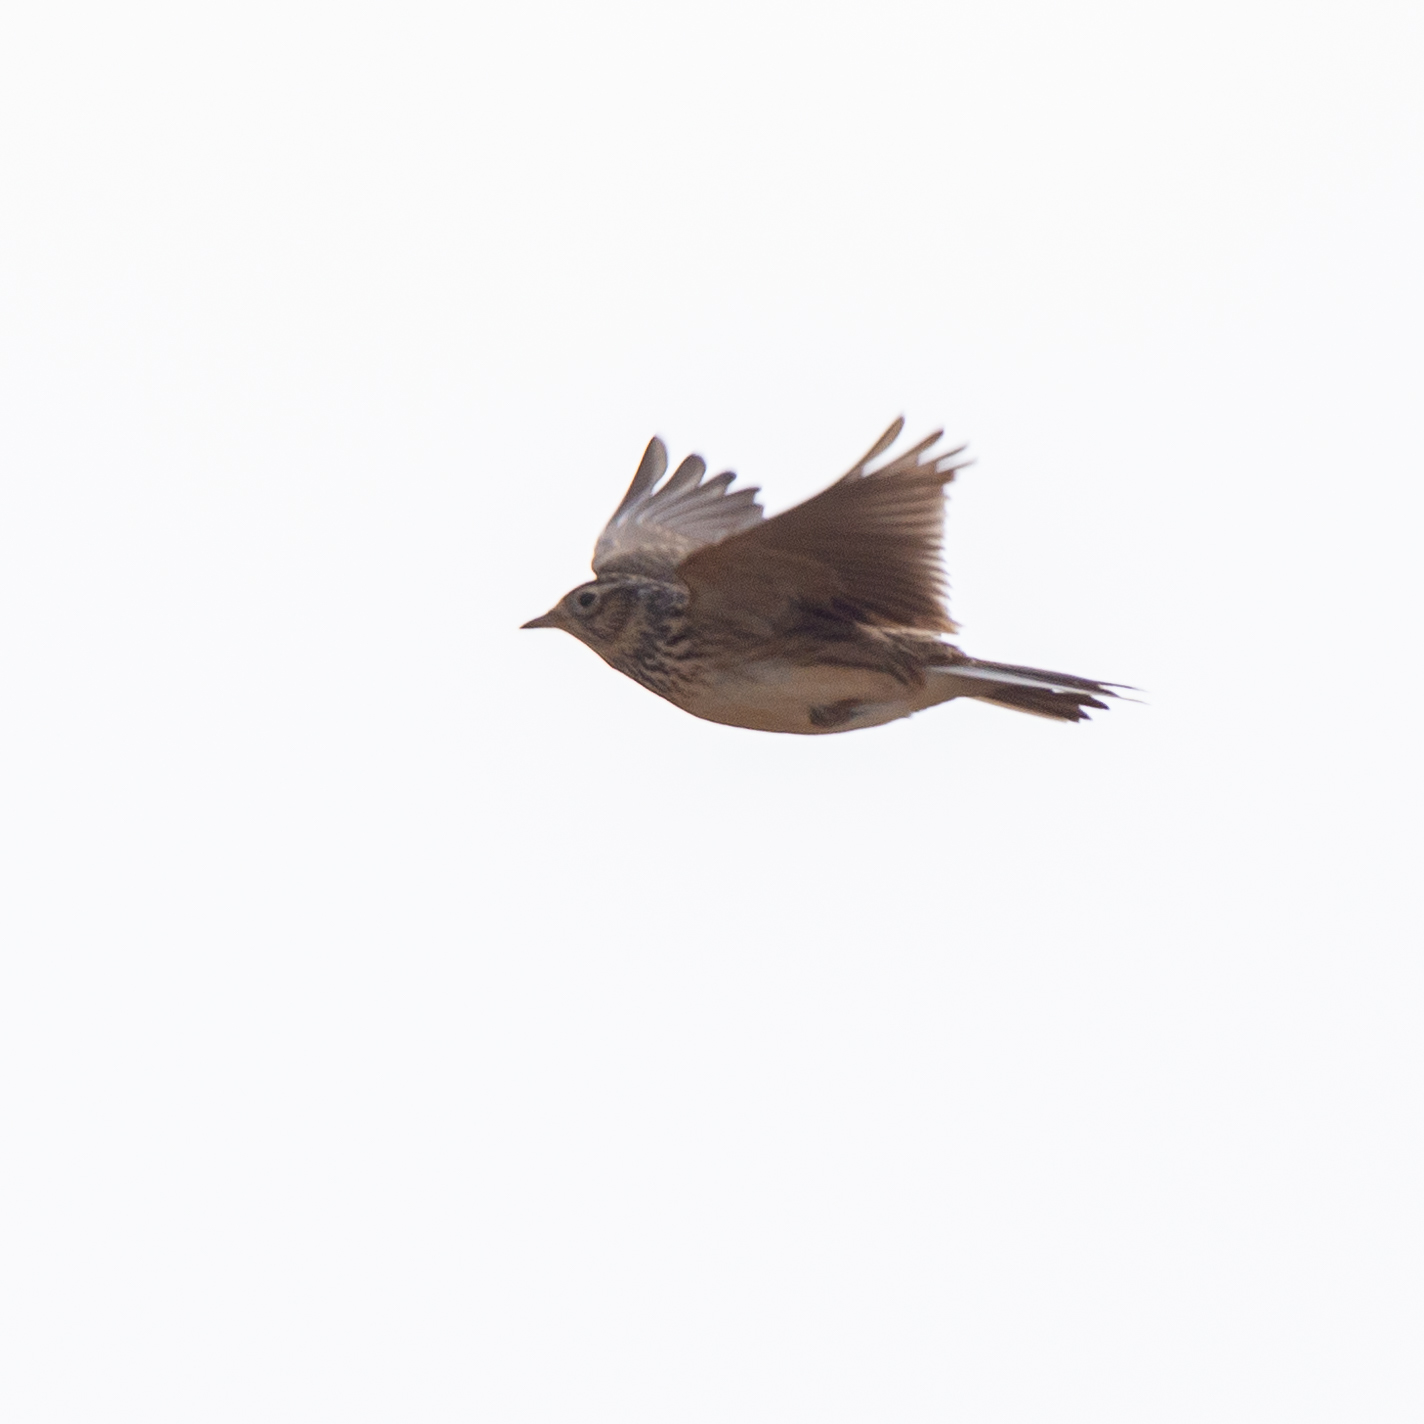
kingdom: Animalia
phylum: Chordata
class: Aves
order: Passeriformes
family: Alaudidae
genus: Alauda
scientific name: Alauda arvensis
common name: Eurasian skylark
